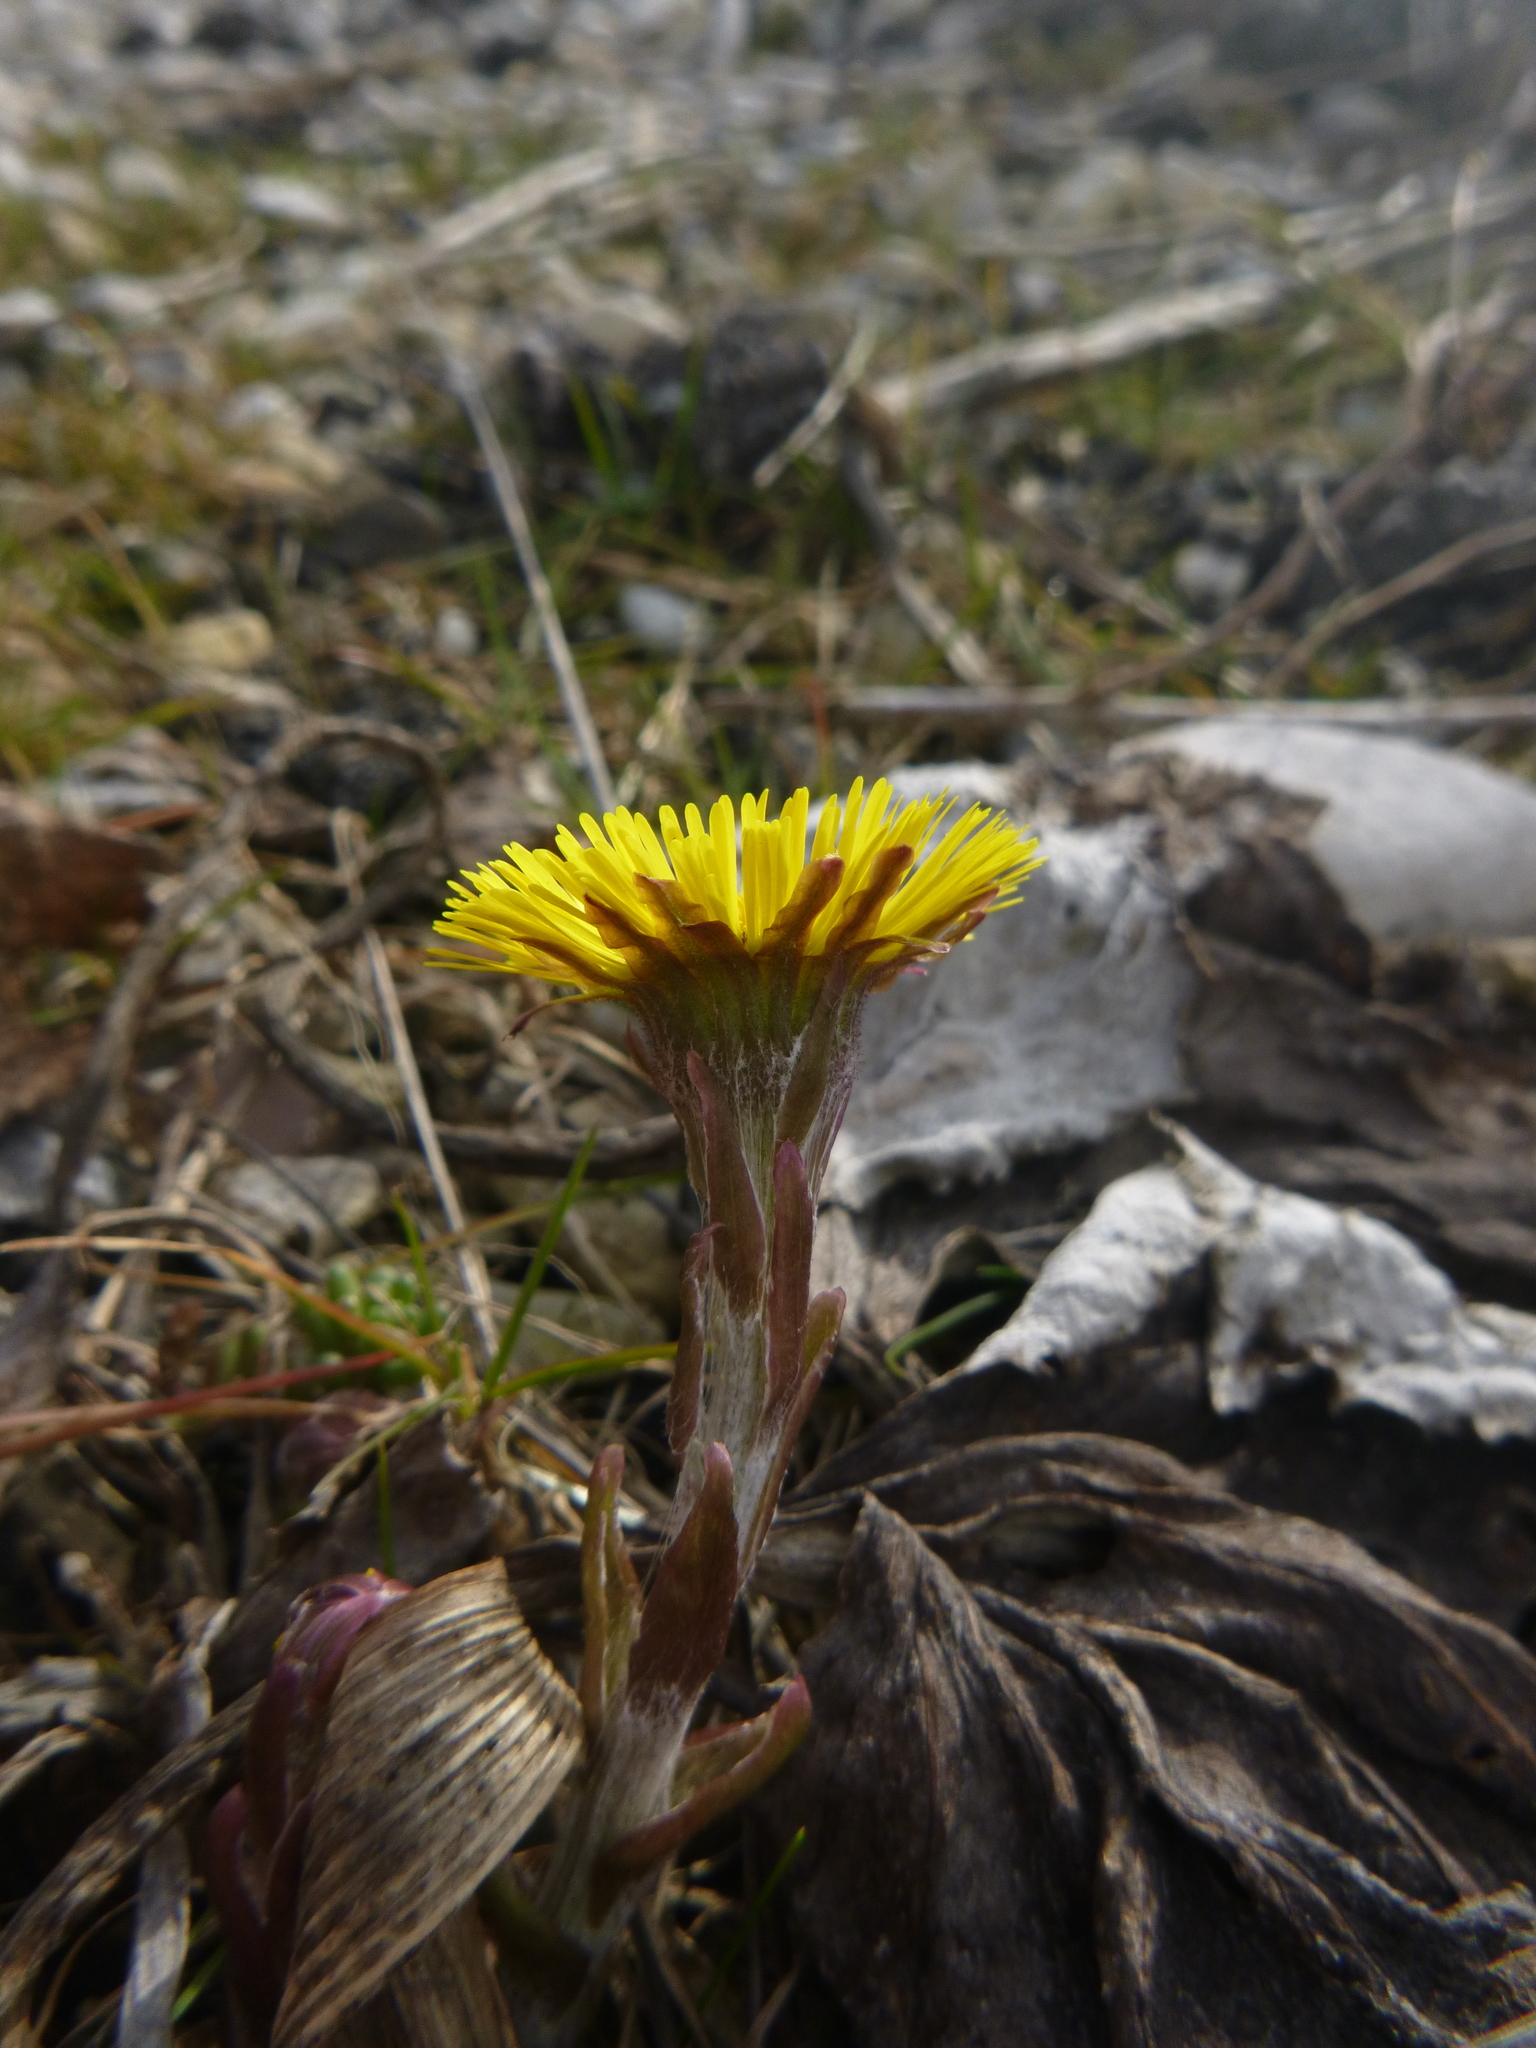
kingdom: Plantae
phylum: Tracheophyta
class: Magnoliopsida
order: Asterales
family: Asteraceae
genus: Tussilago
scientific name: Tussilago farfara
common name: Coltsfoot
